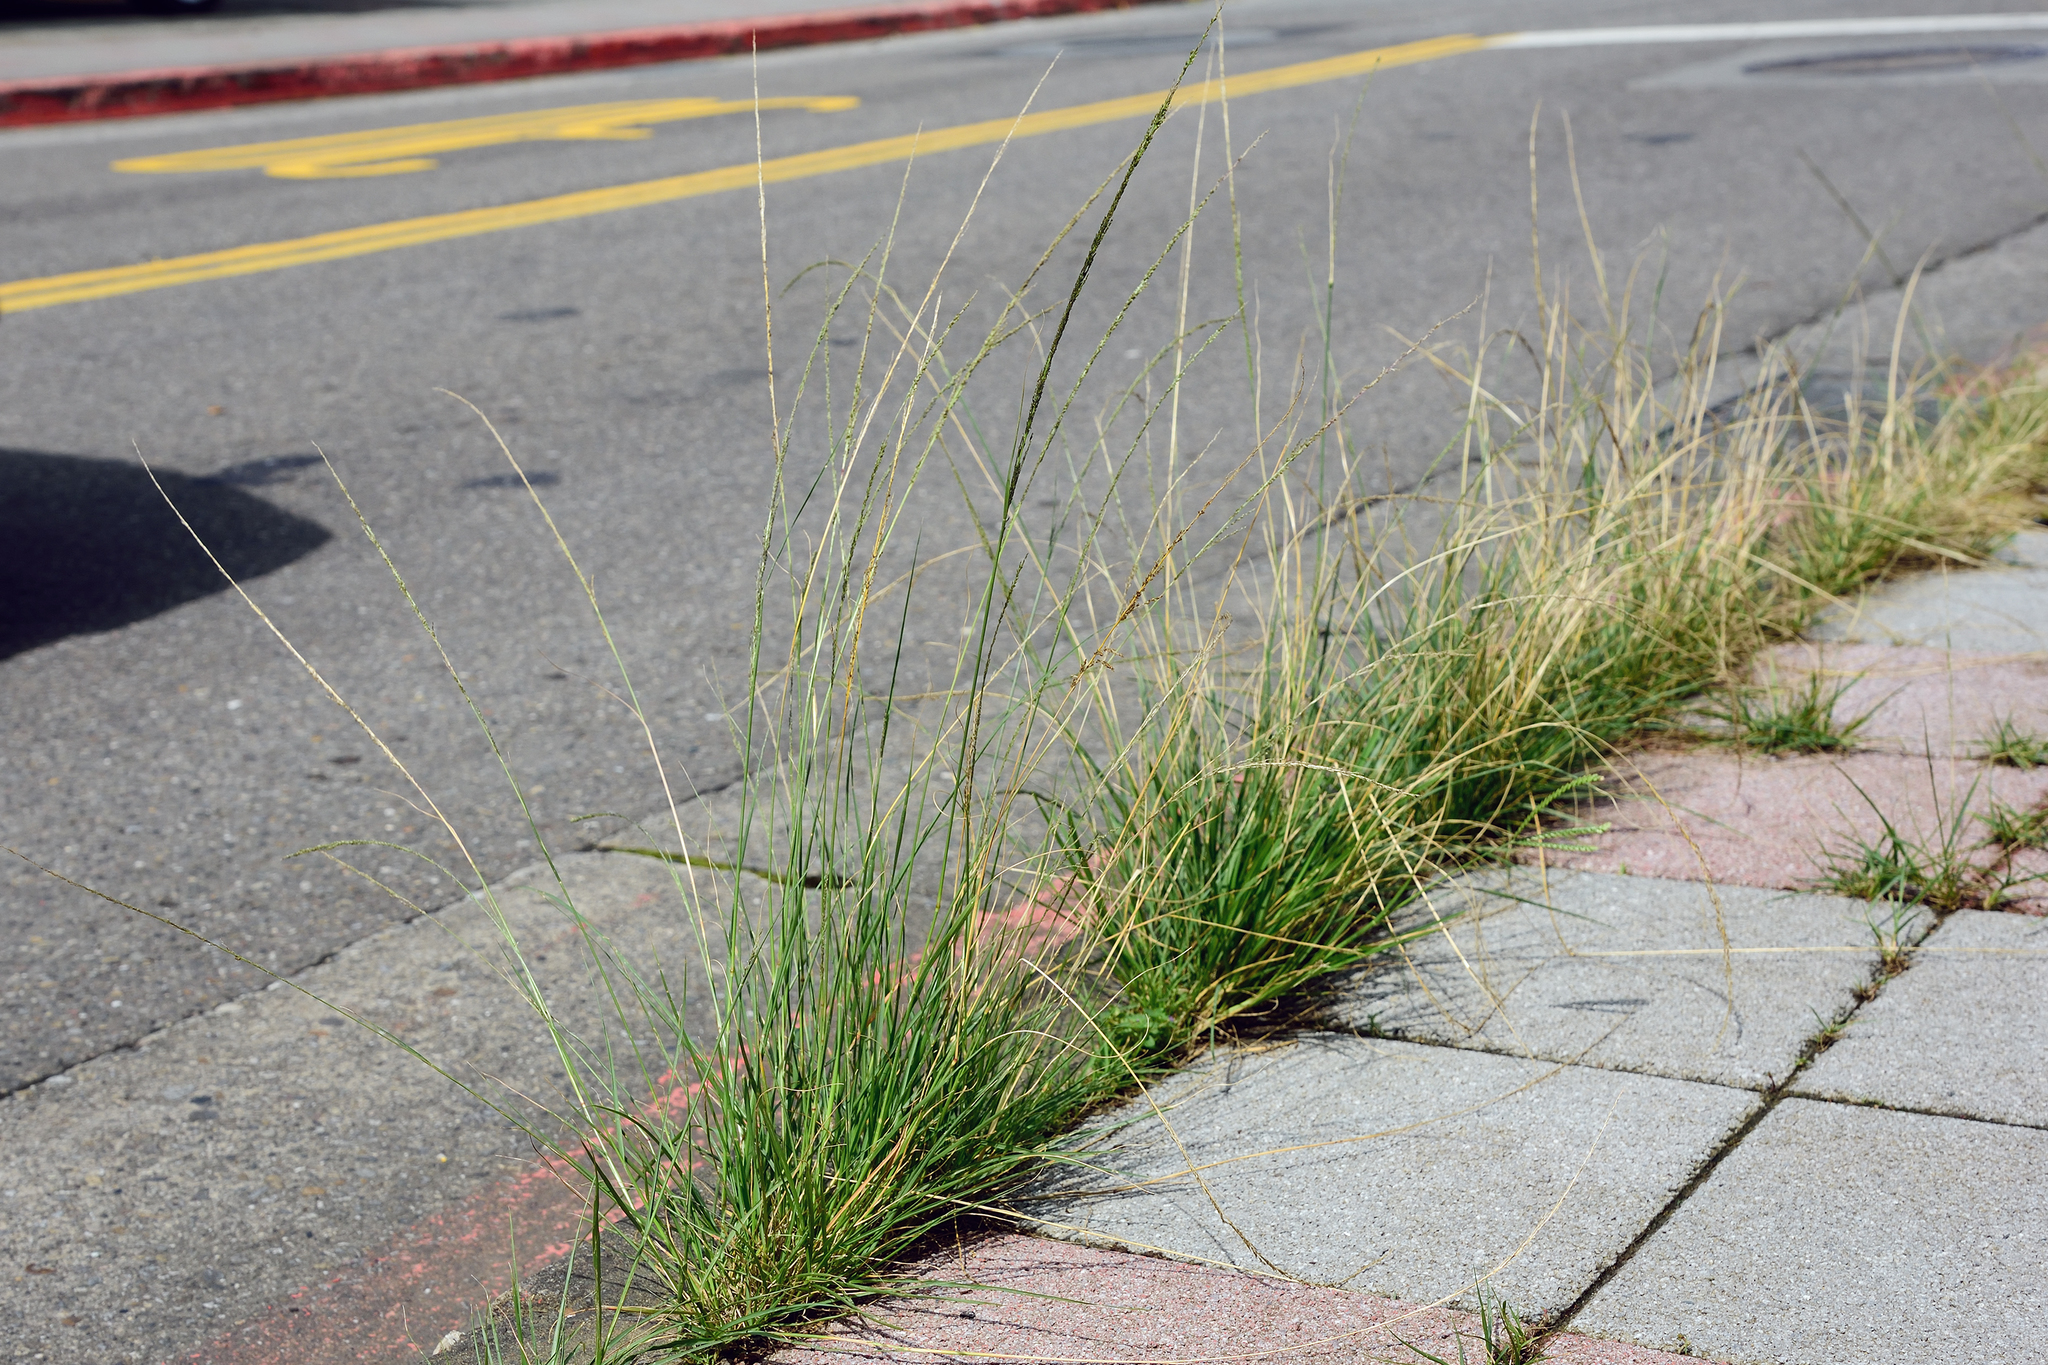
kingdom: Plantae
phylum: Tracheophyta
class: Liliopsida
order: Poales
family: Poaceae
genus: Sporobolus
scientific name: Sporobolus indicus
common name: Smut grass
